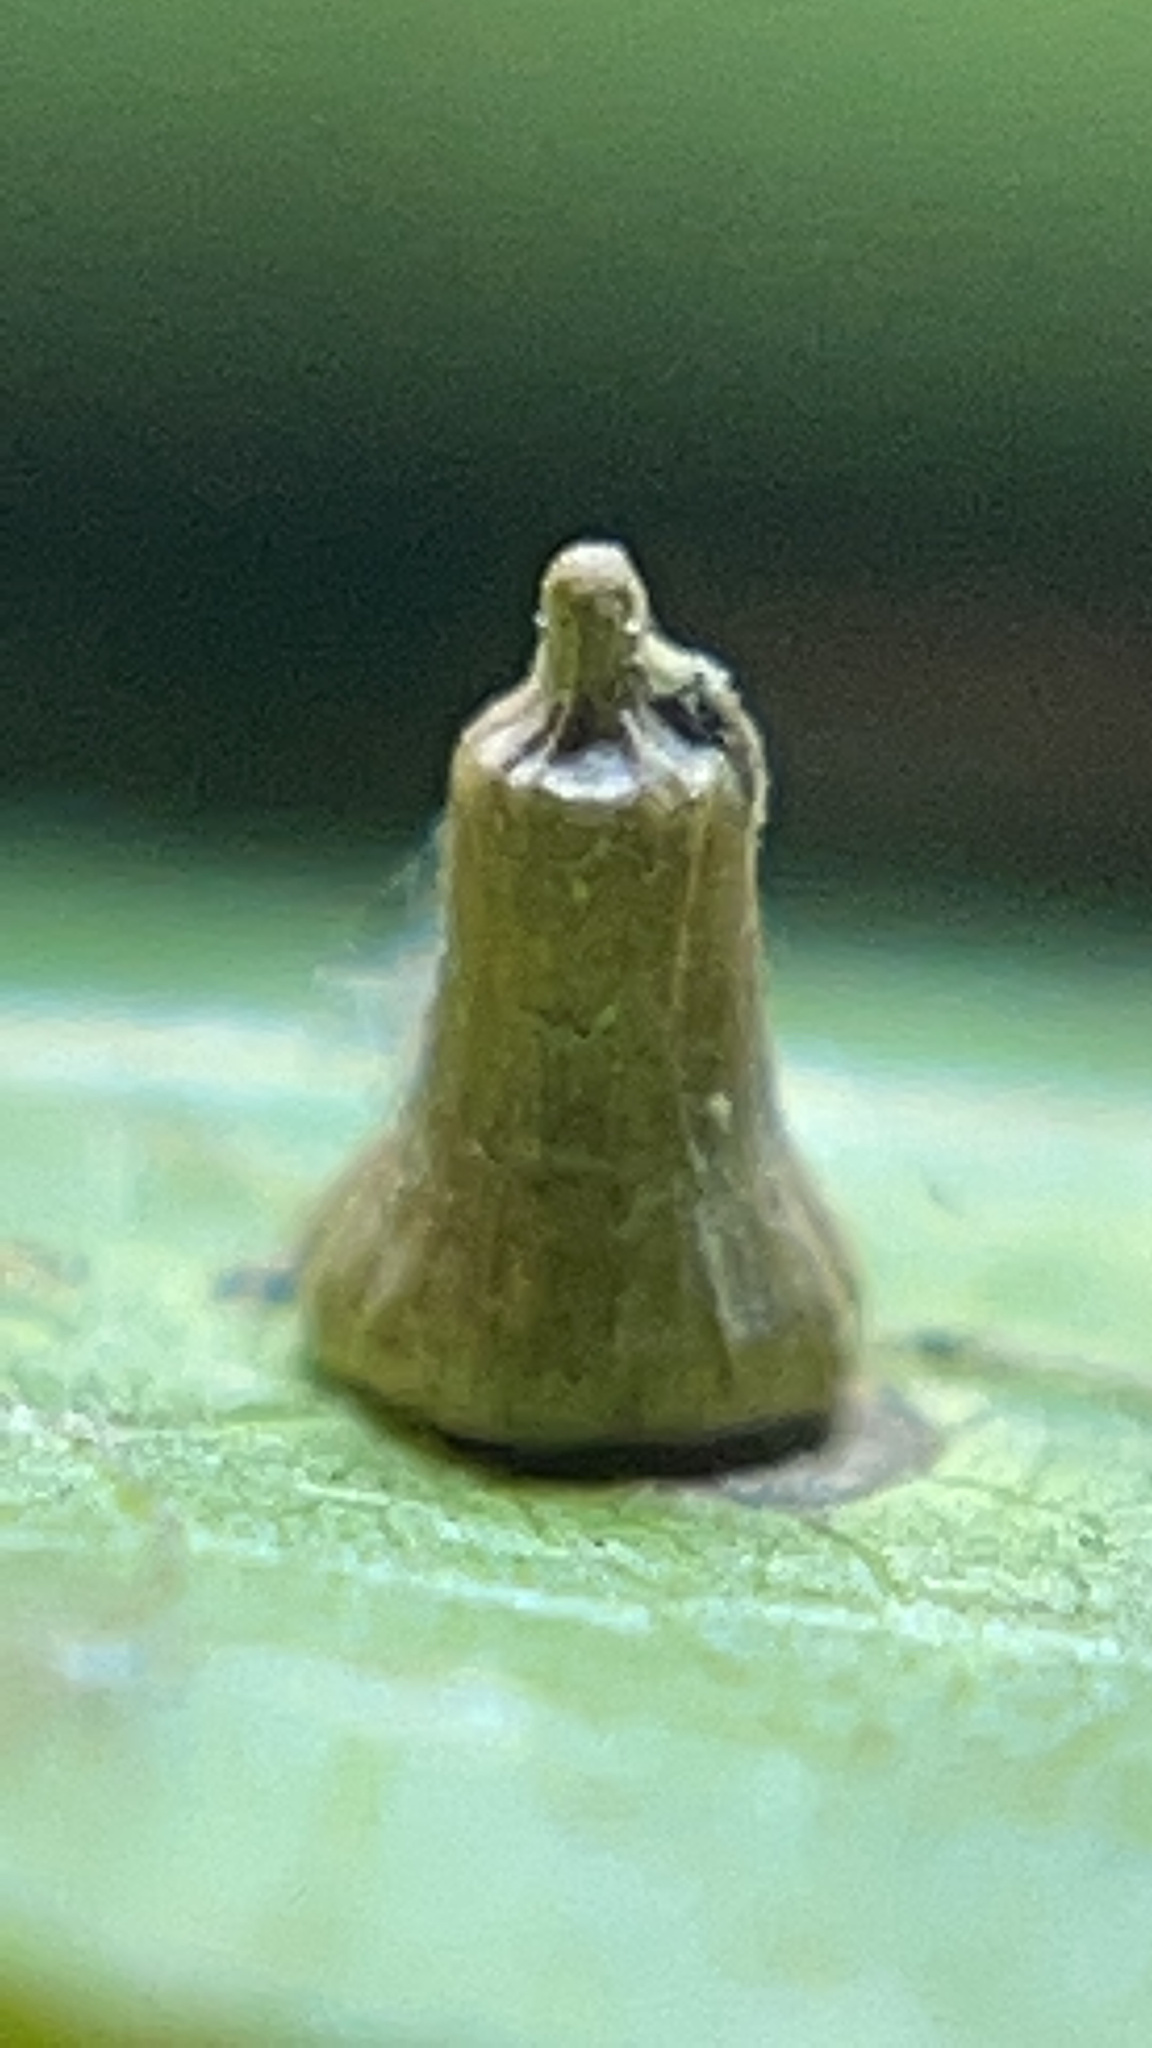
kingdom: Animalia
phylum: Arthropoda
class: Insecta
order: Diptera
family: Cecidomyiidae
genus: Celticecis
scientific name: Celticecis aciculata
